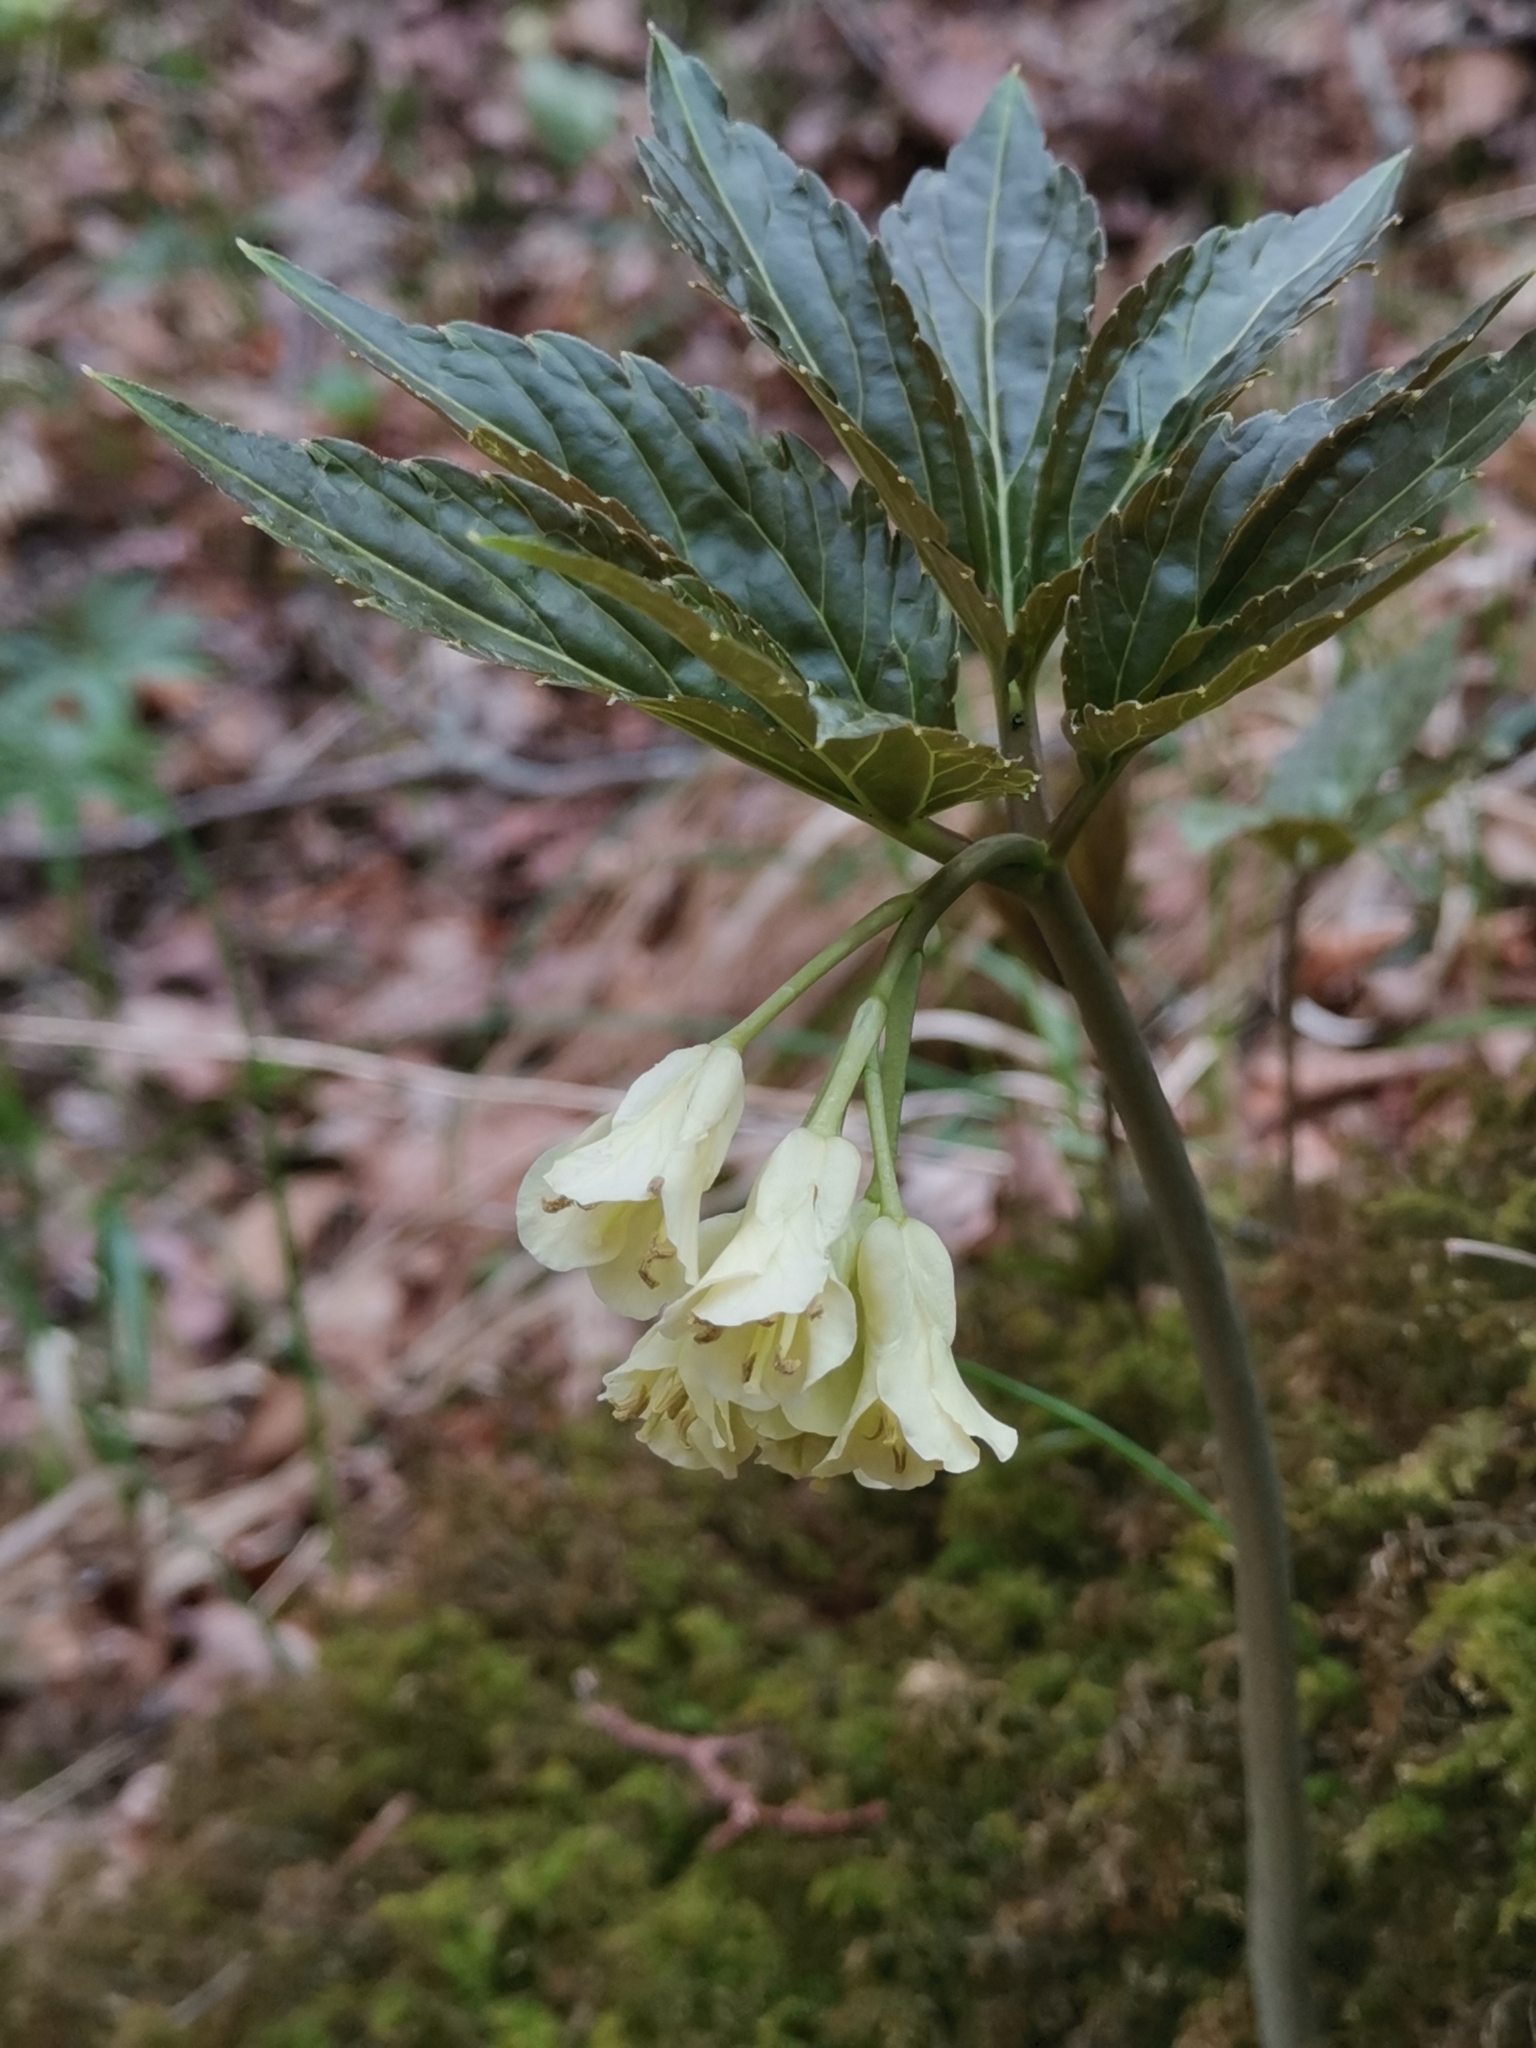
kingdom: Plantae
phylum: Tracheophyta
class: Magnoliopsida
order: Brassicales
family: Brassicaceae
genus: Cardamine
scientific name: Cardamine enneaphyllos
